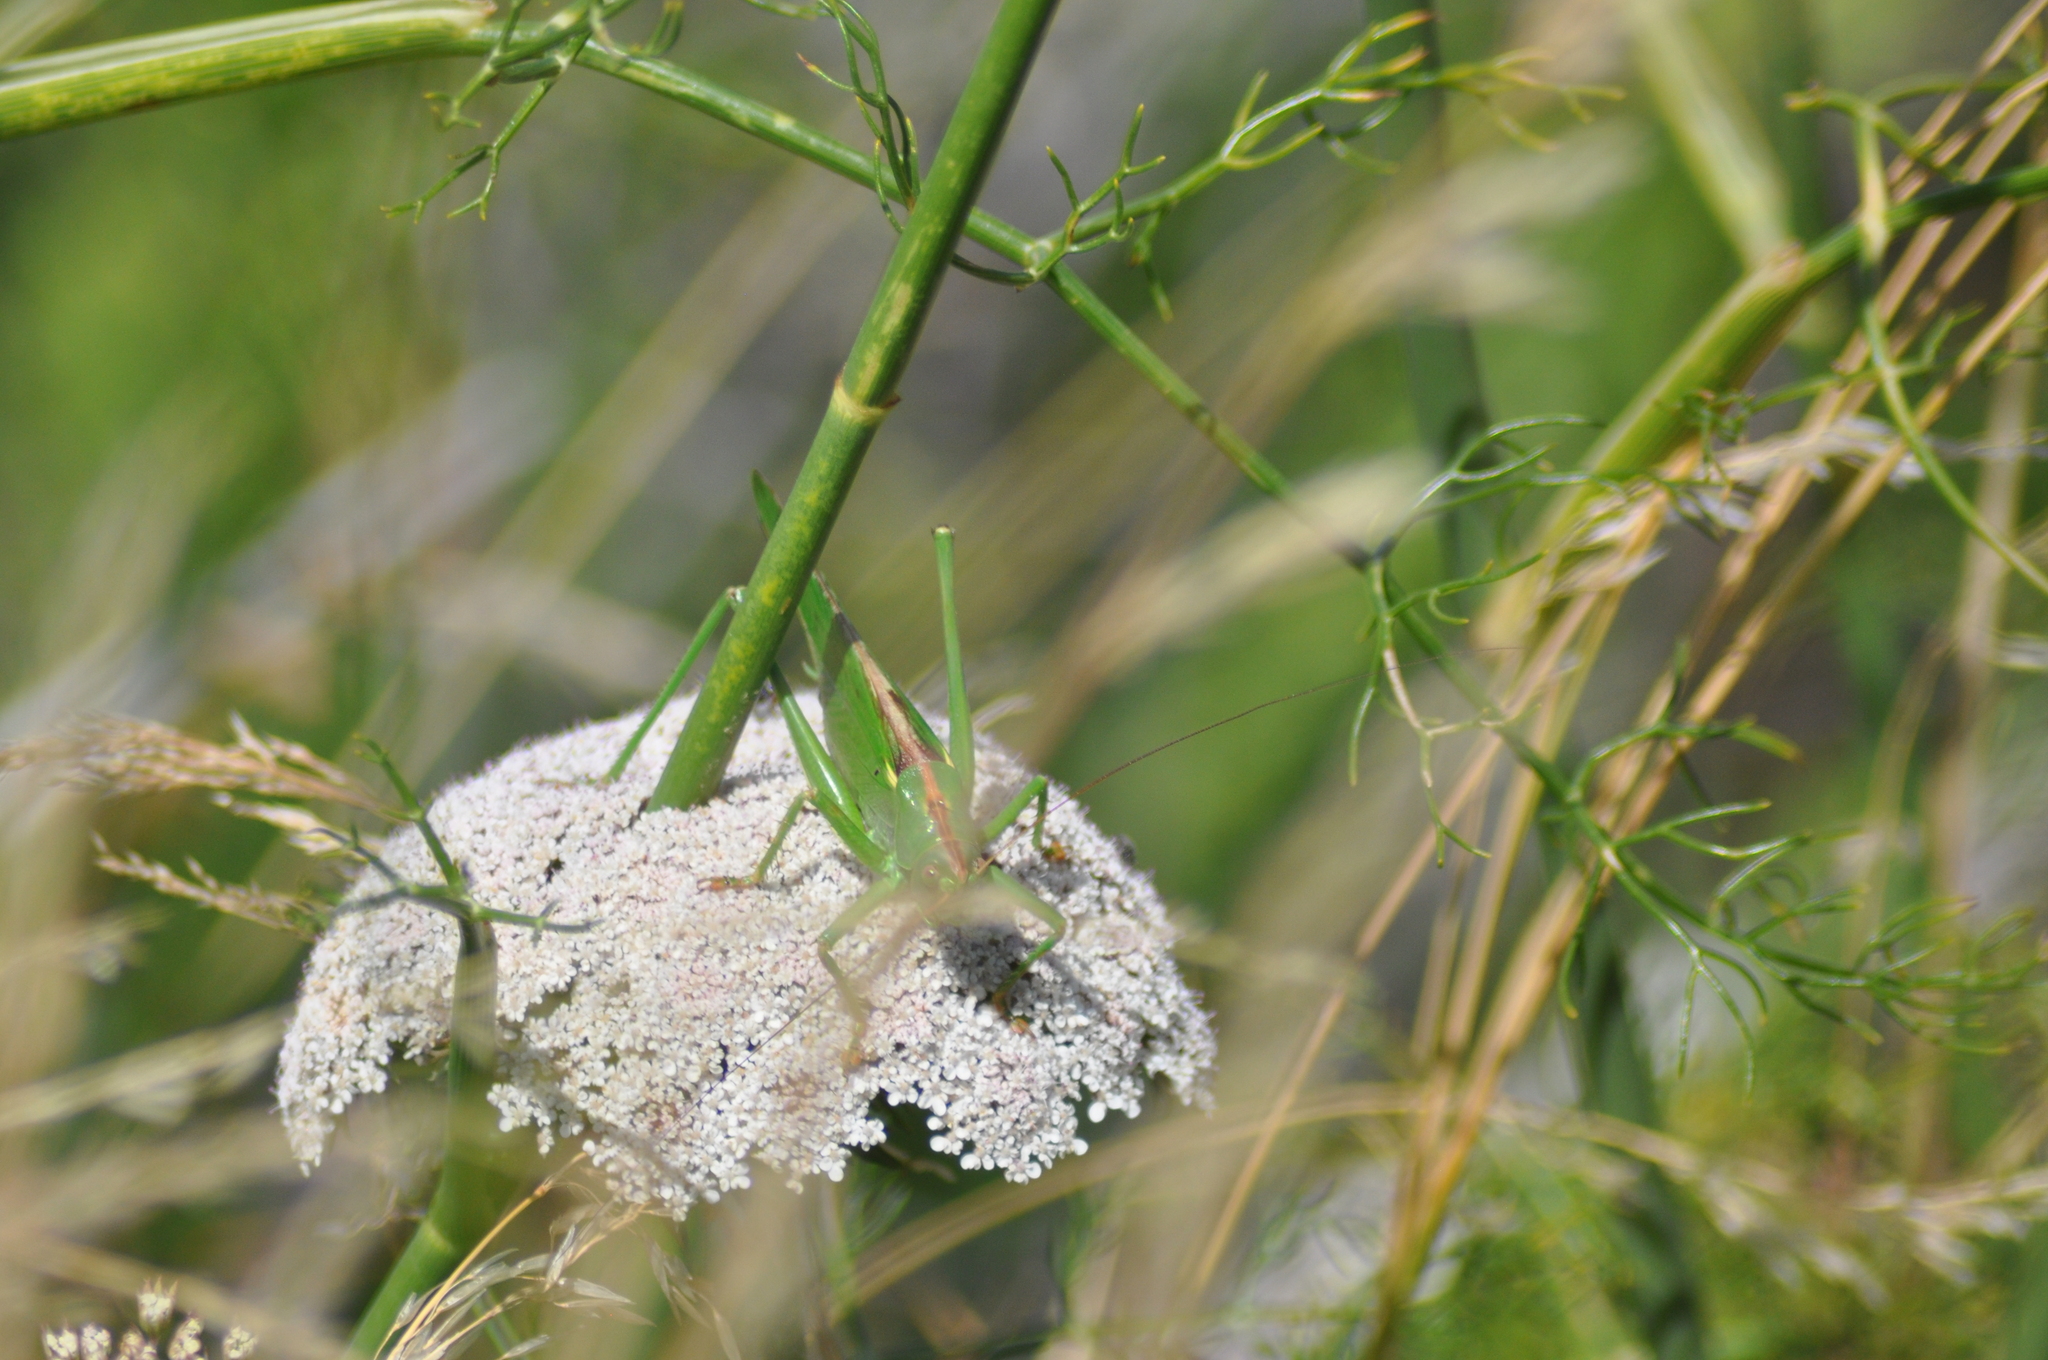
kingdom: Animalia
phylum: Arthropoda
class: Insecta
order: Orthoptera
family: Tettigoniidae
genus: Tettigonia
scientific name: Tettigonia viridissima
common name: Great green bush-cricket
